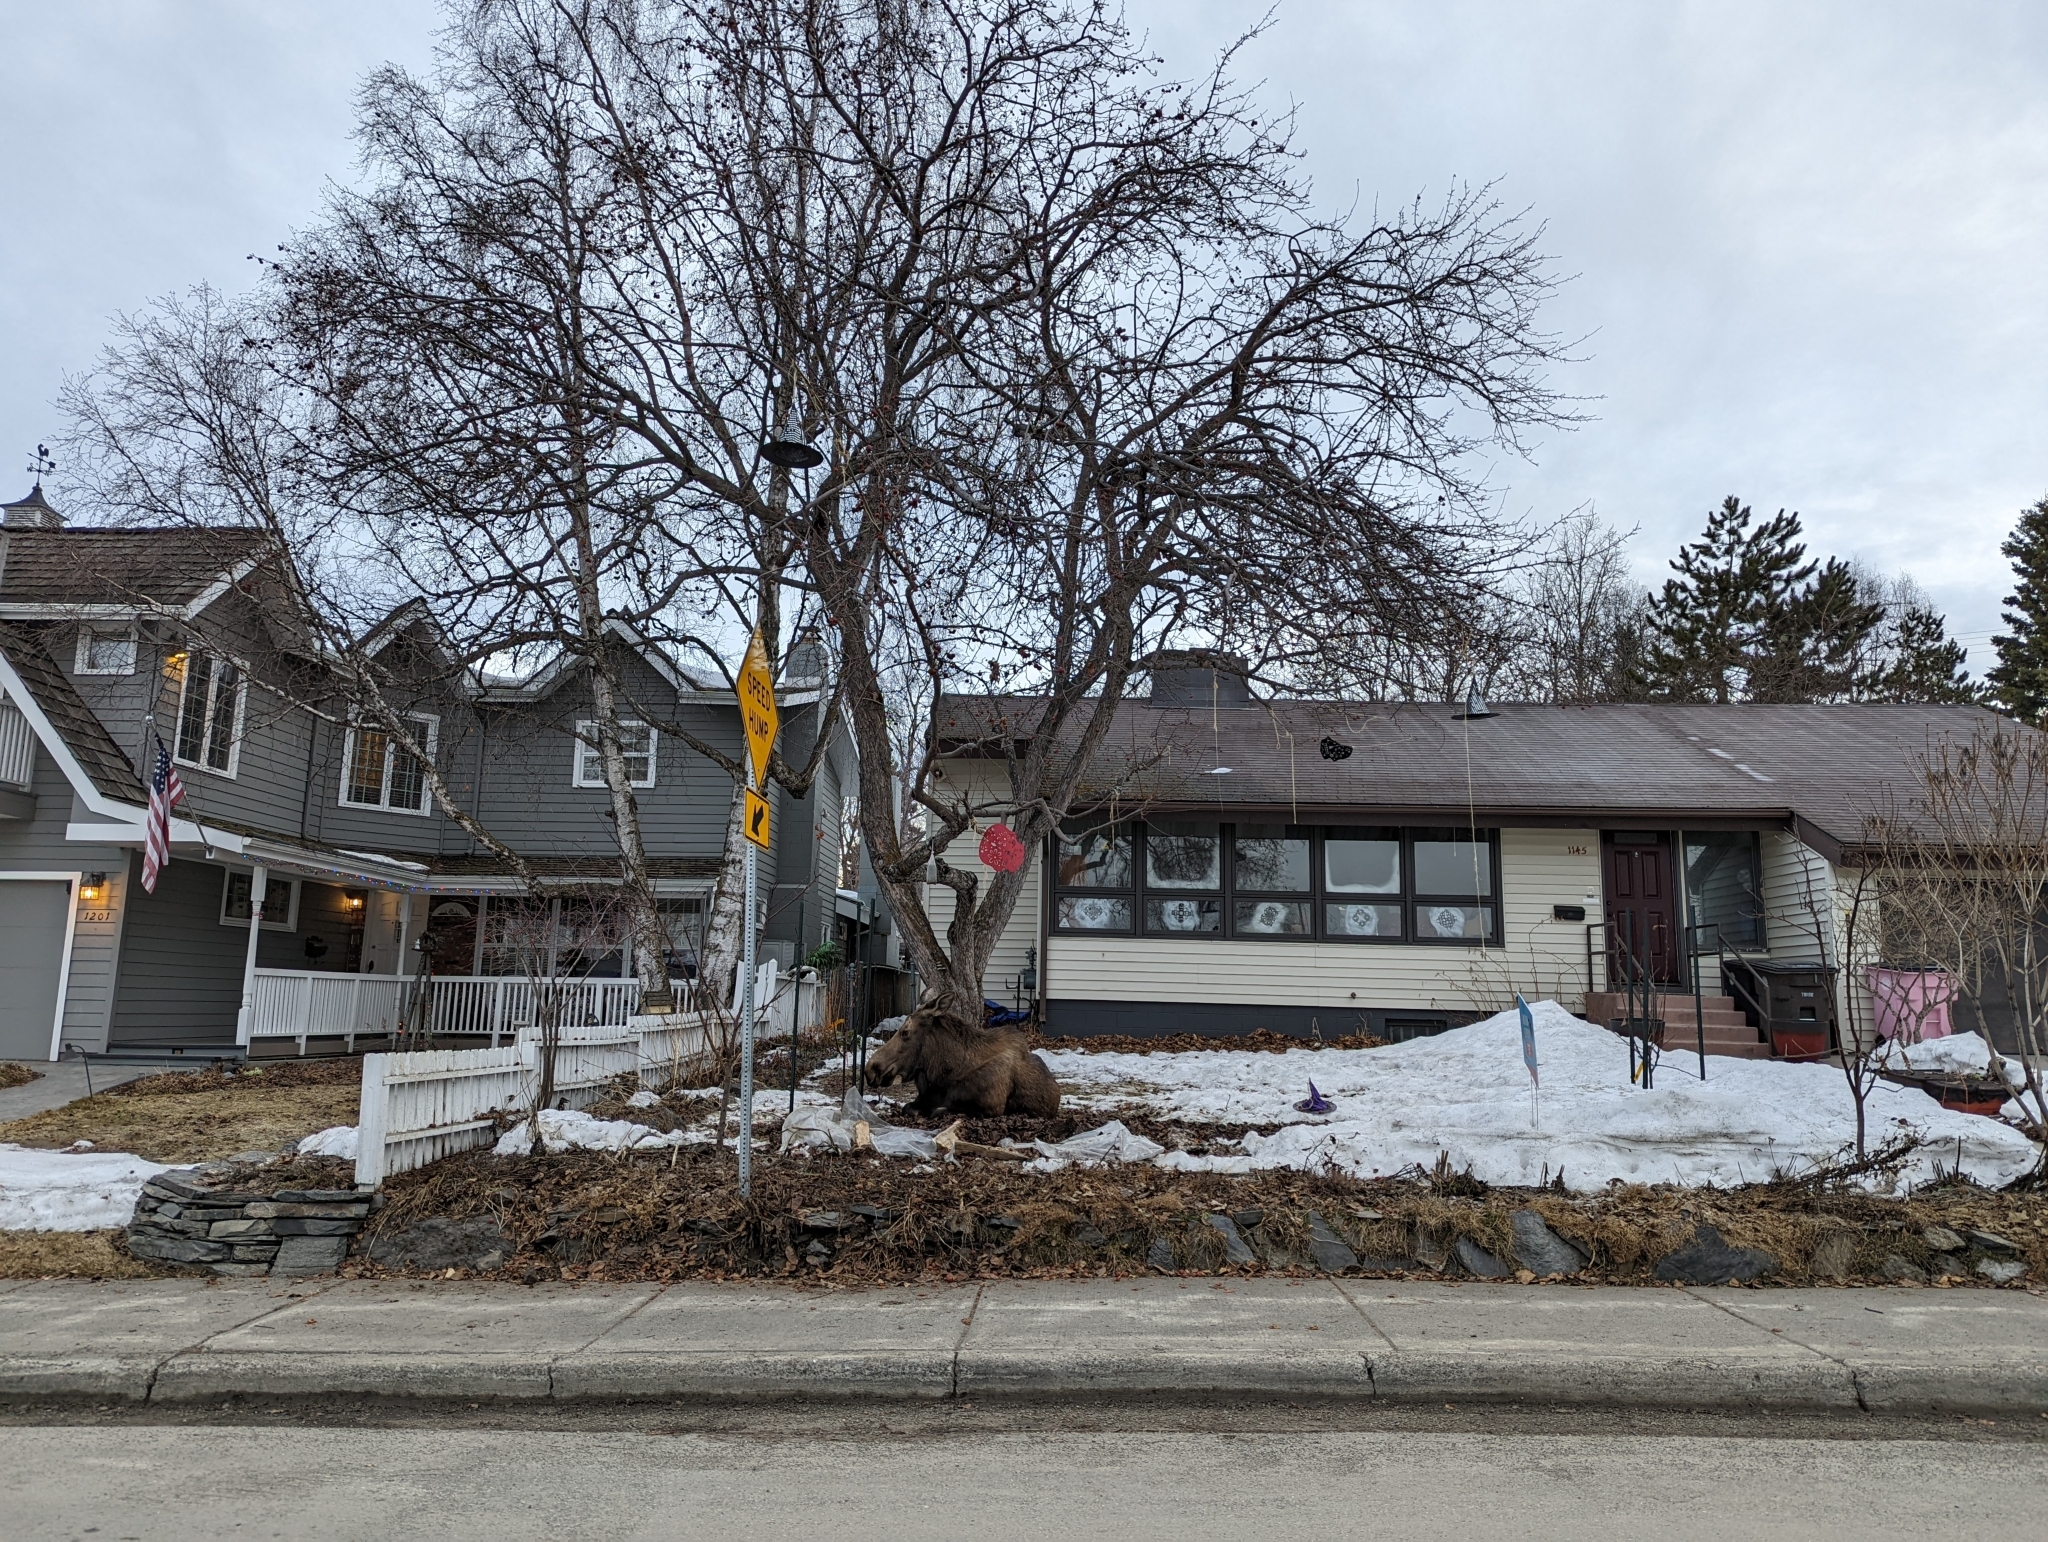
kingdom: Animalia
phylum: Chordata
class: Mammalia
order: Artiodactyla
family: Cervidae
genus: Alces
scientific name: Alces alces
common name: Moose
